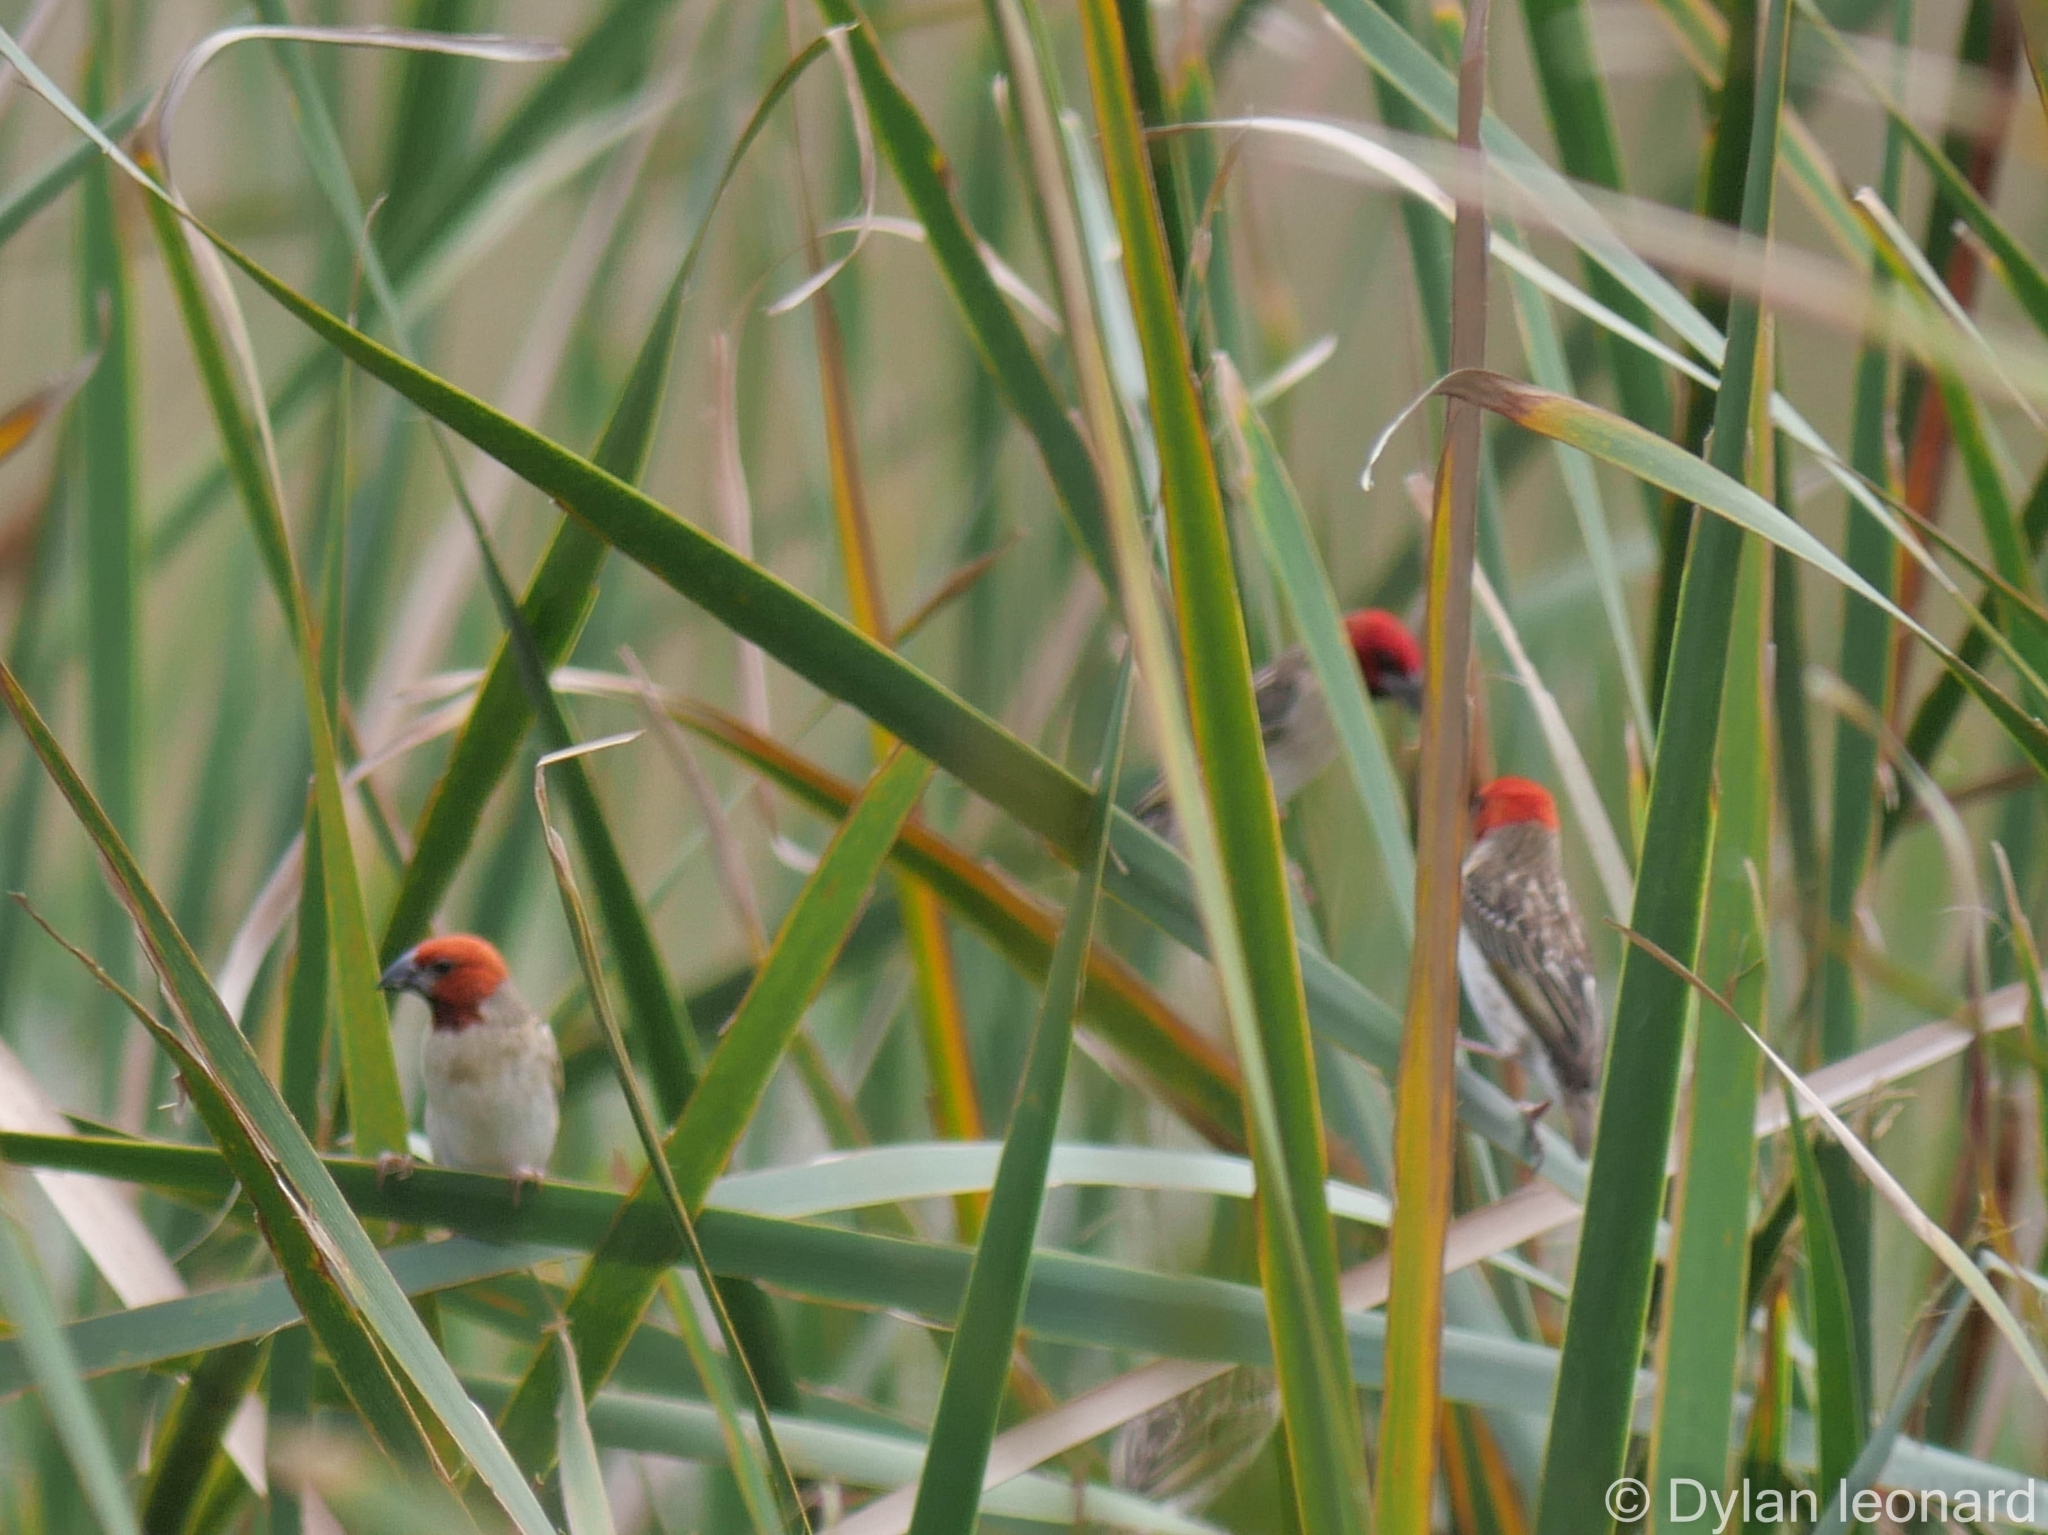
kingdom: Animalia
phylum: Chordata
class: Aves
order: Passeriformes
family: Ploceidae
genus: Quelea
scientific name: Quelea erythrops
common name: Red-headed quelea
